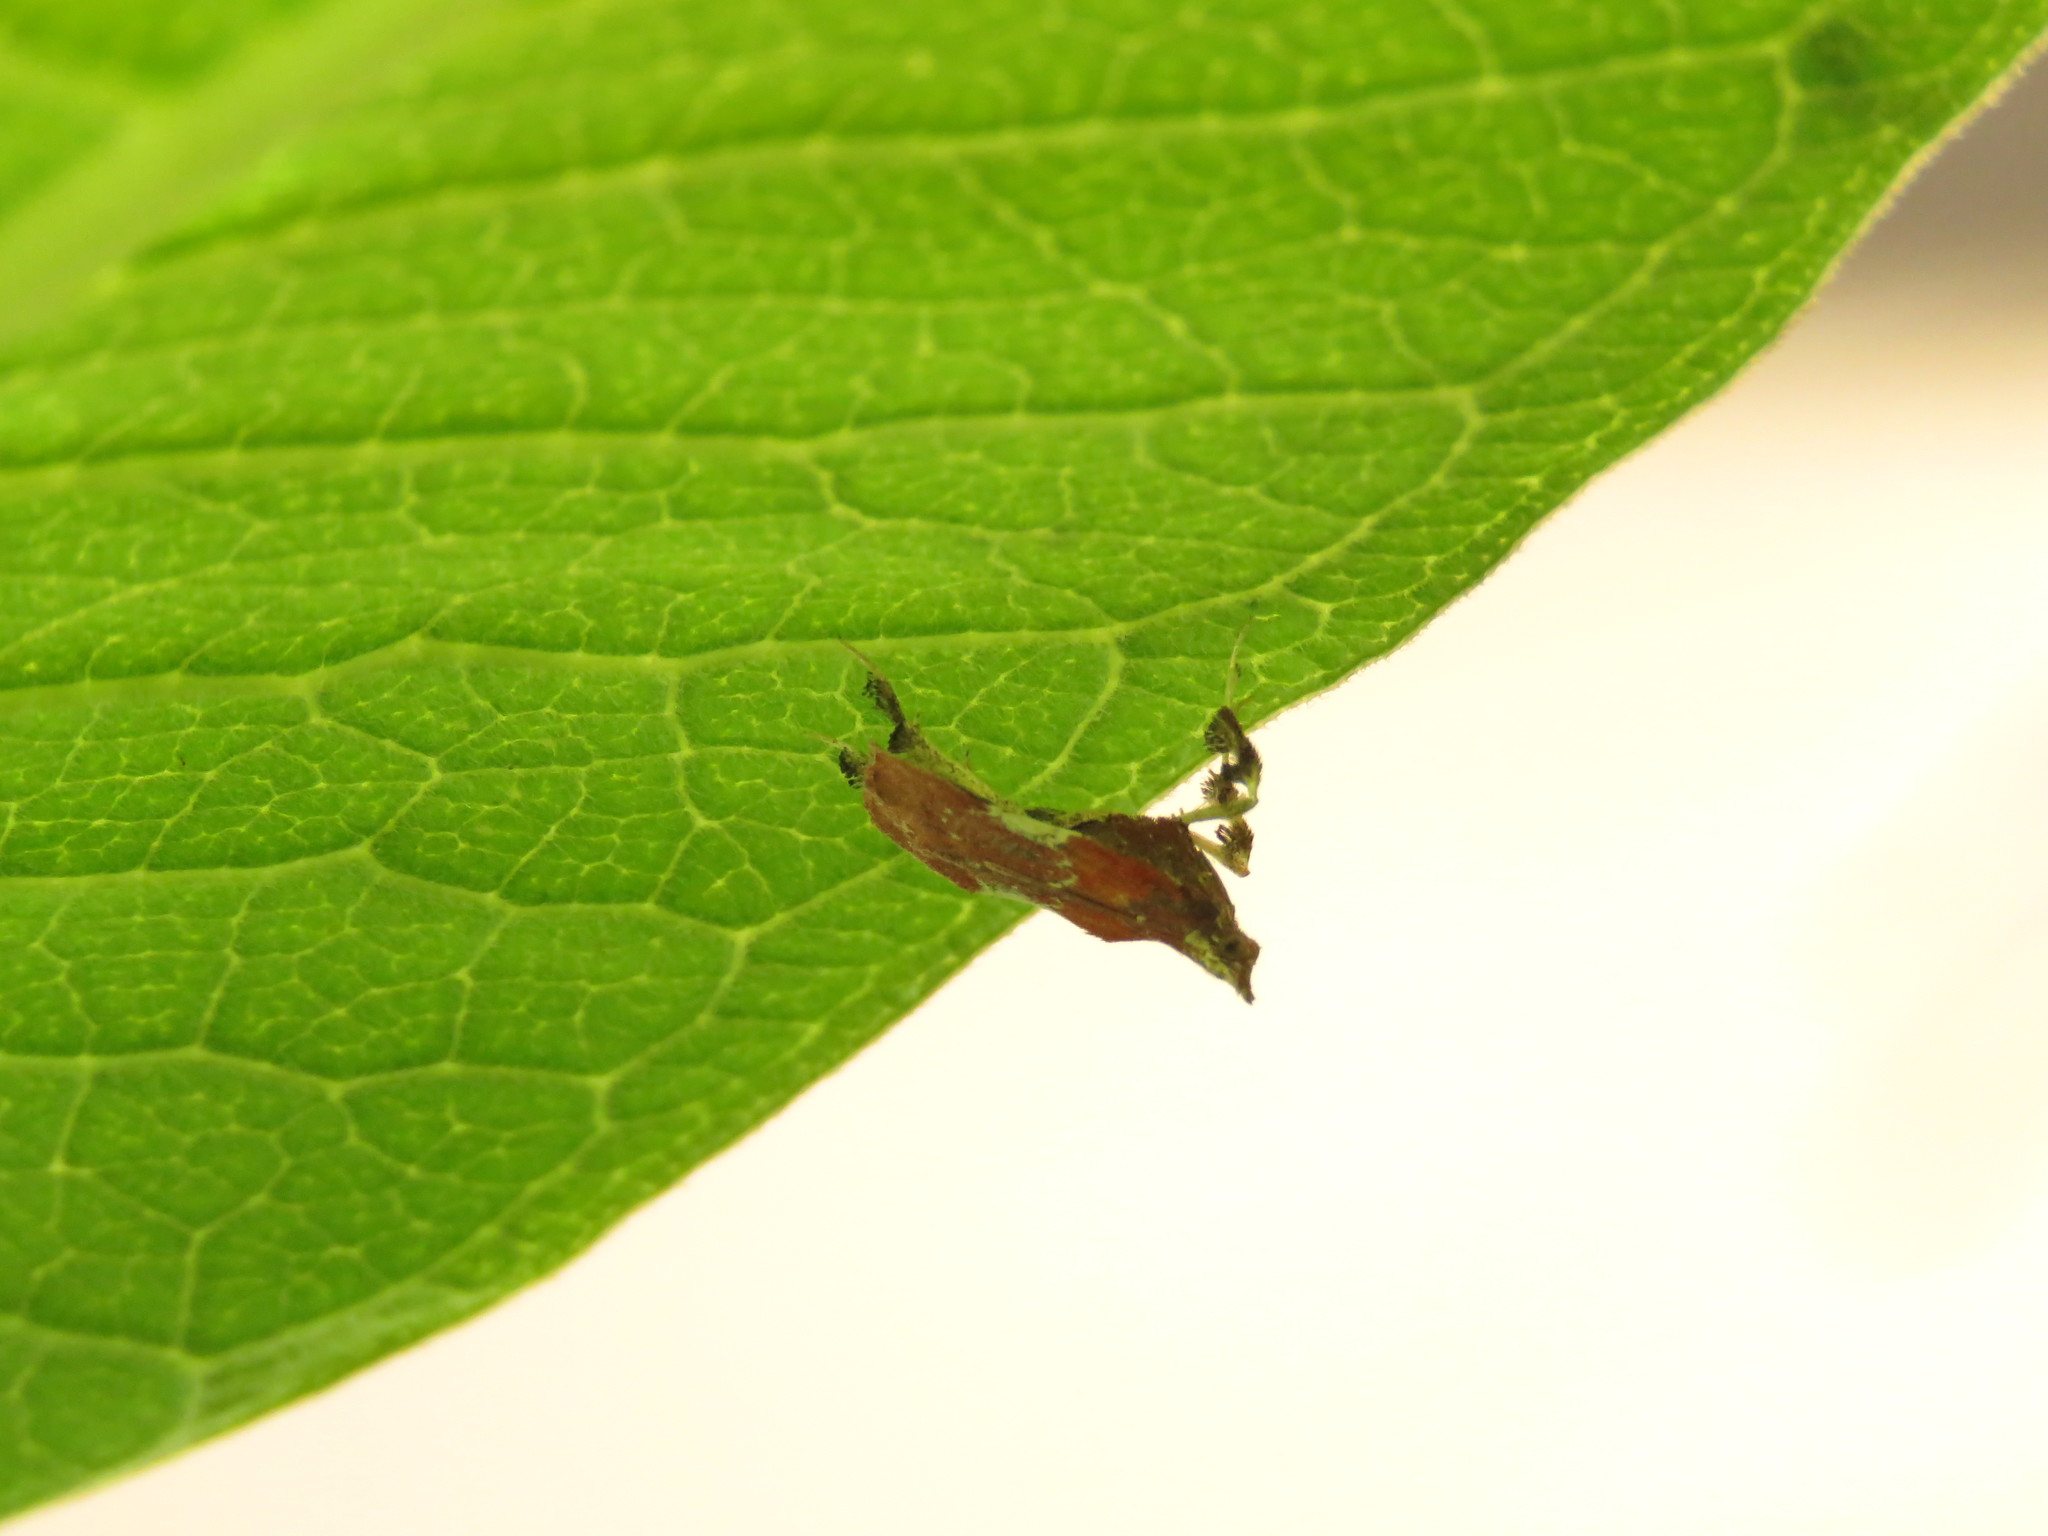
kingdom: Animalia
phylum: Arthropoda
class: Insecta
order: Lepidoptera
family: Pyralidae
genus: Galasa
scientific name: Galasa nigrinodis
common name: Boxwood leaftier moth
